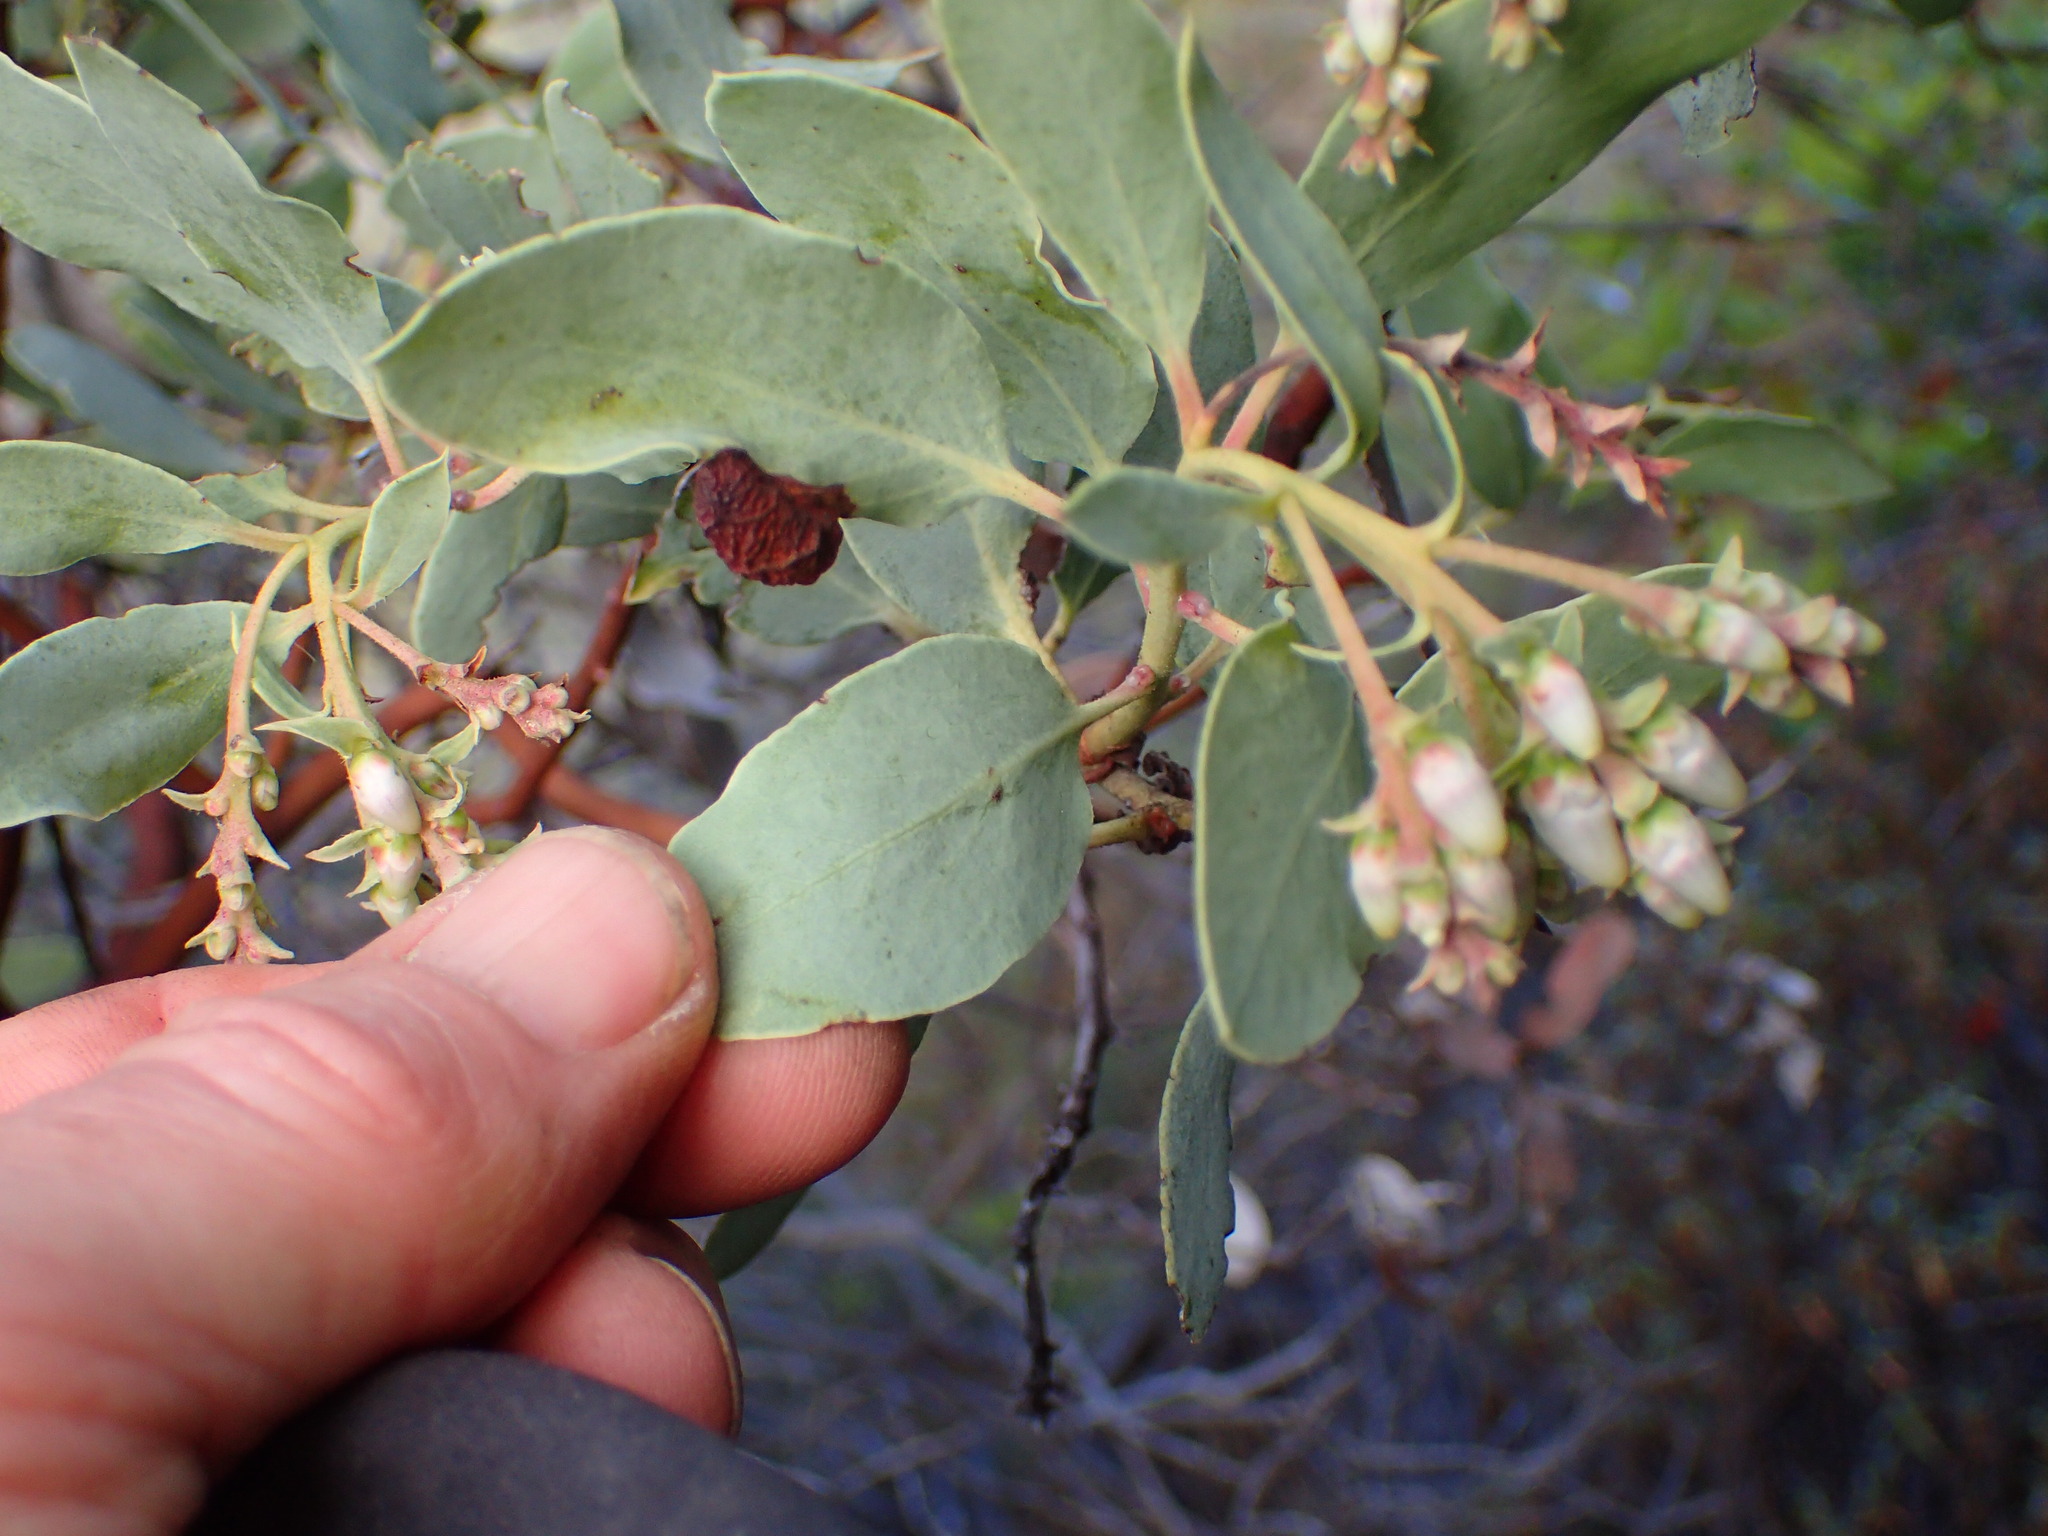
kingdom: Plantae
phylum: Tracheophyta
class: Magnoliopsida
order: Ericales
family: Ericaceae
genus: Arctostaphylos
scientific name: Arctostaphylos glauca
